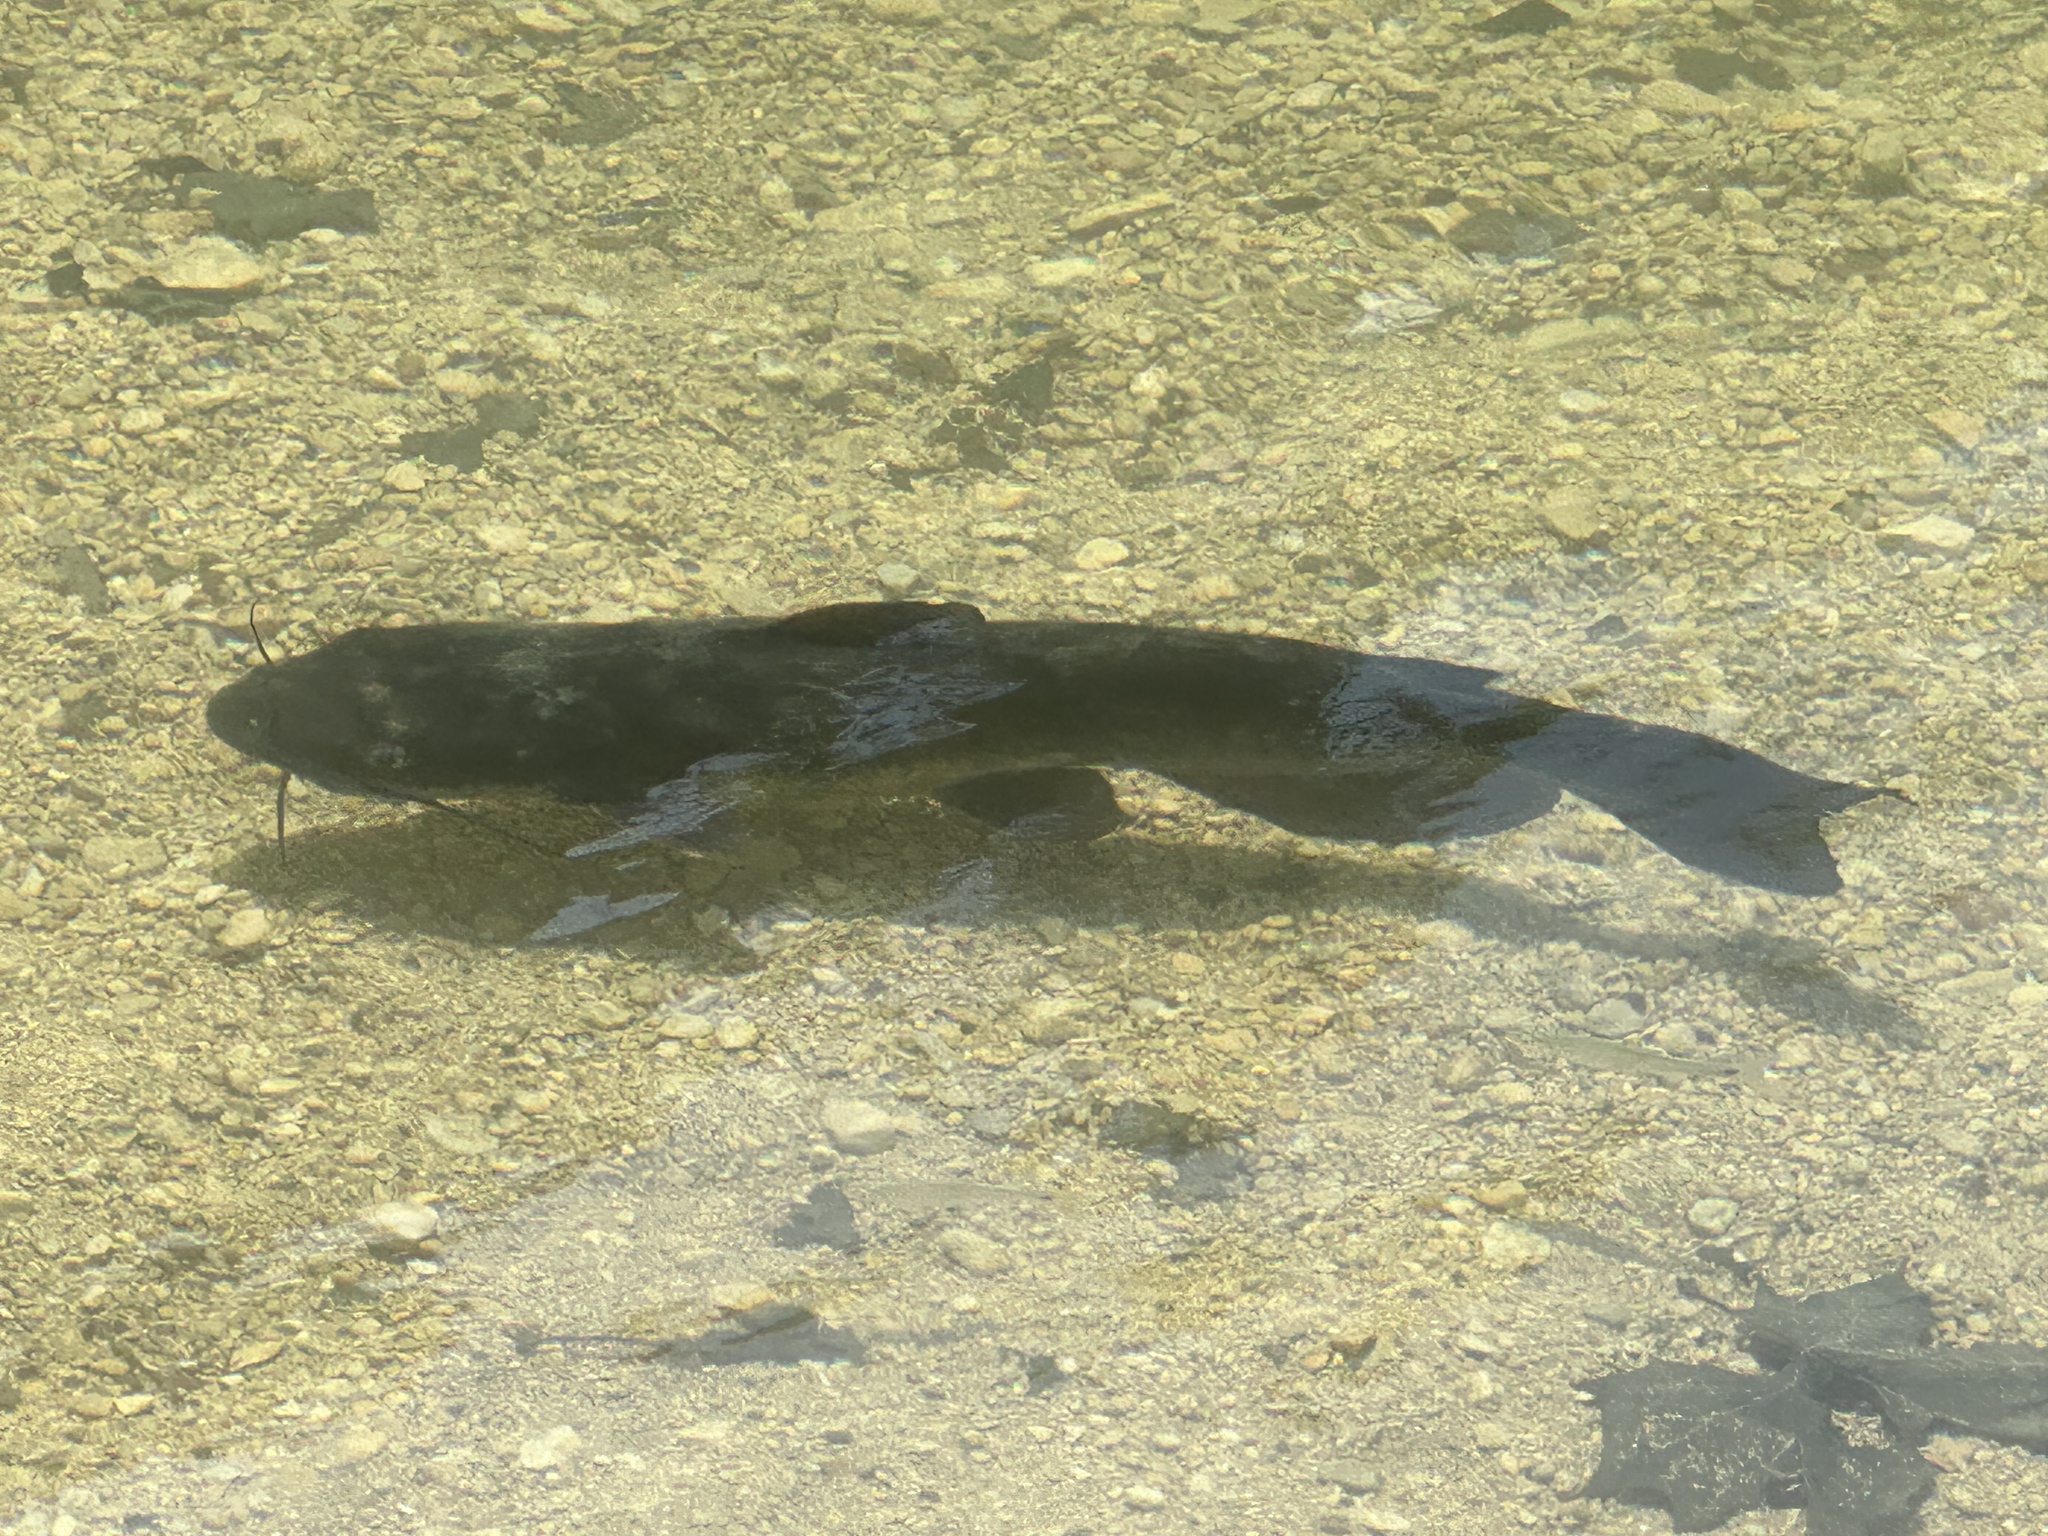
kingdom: Animalia
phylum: Chordata
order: Siluriformes
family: Ictaluridae
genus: Ictalurus
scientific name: Ictalurus punctatus
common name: Channel catfish
